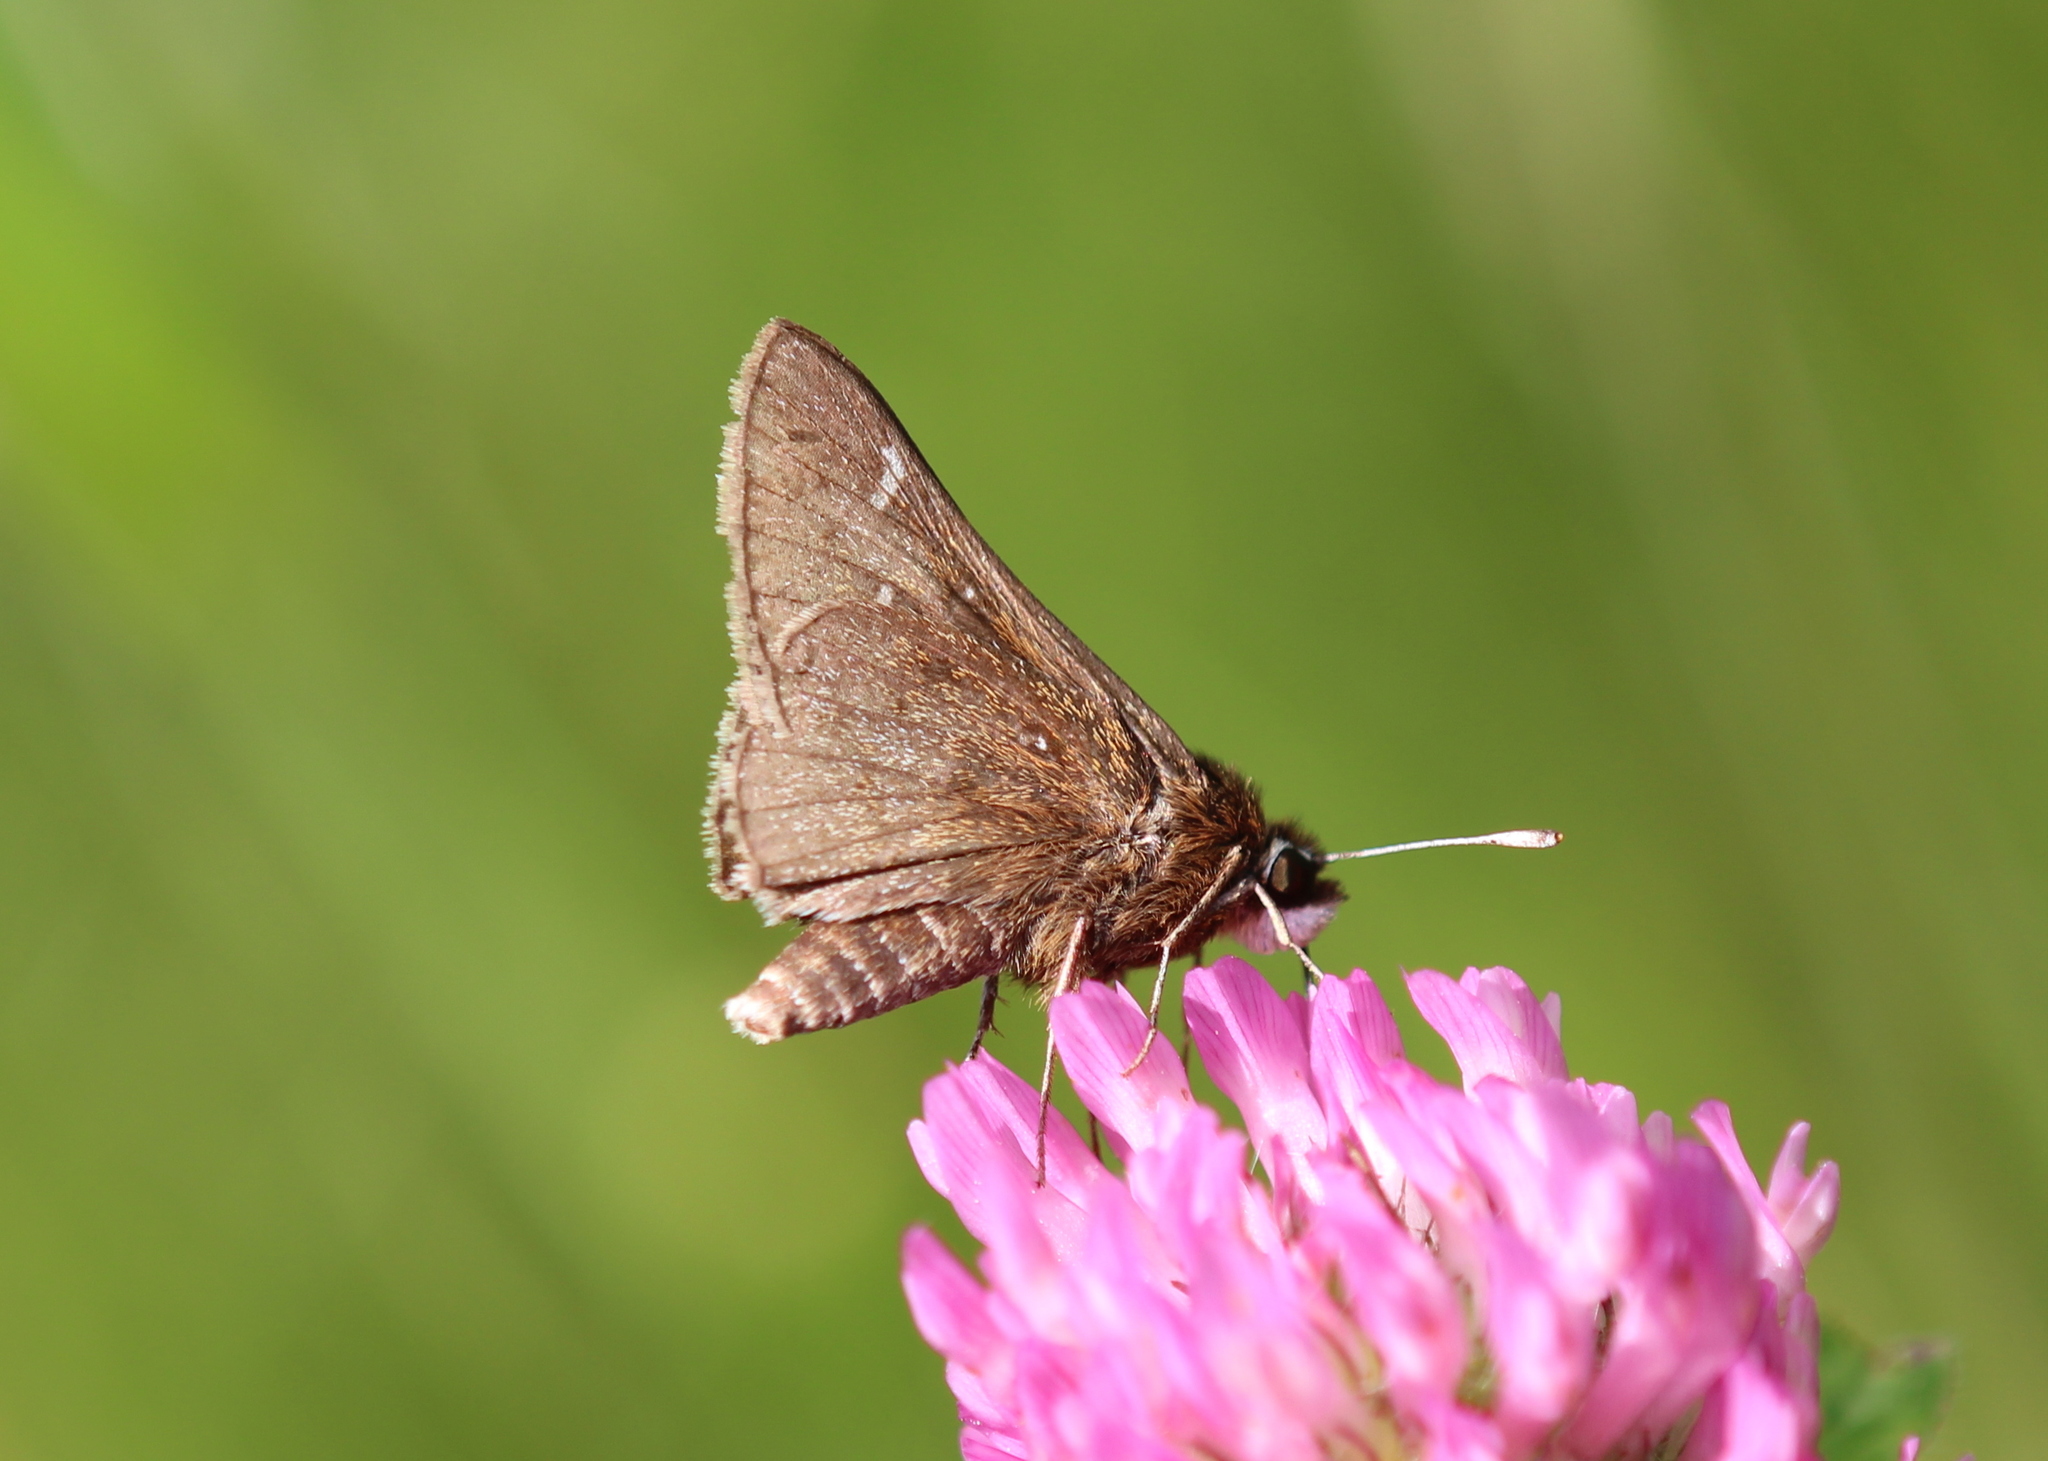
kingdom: Animalia
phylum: Arthropoda
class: Insecta
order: Lepidoptera
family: Hesperiidae
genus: Atrytonopsis
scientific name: Atrytonopsis hianna
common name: Dusted skipper
